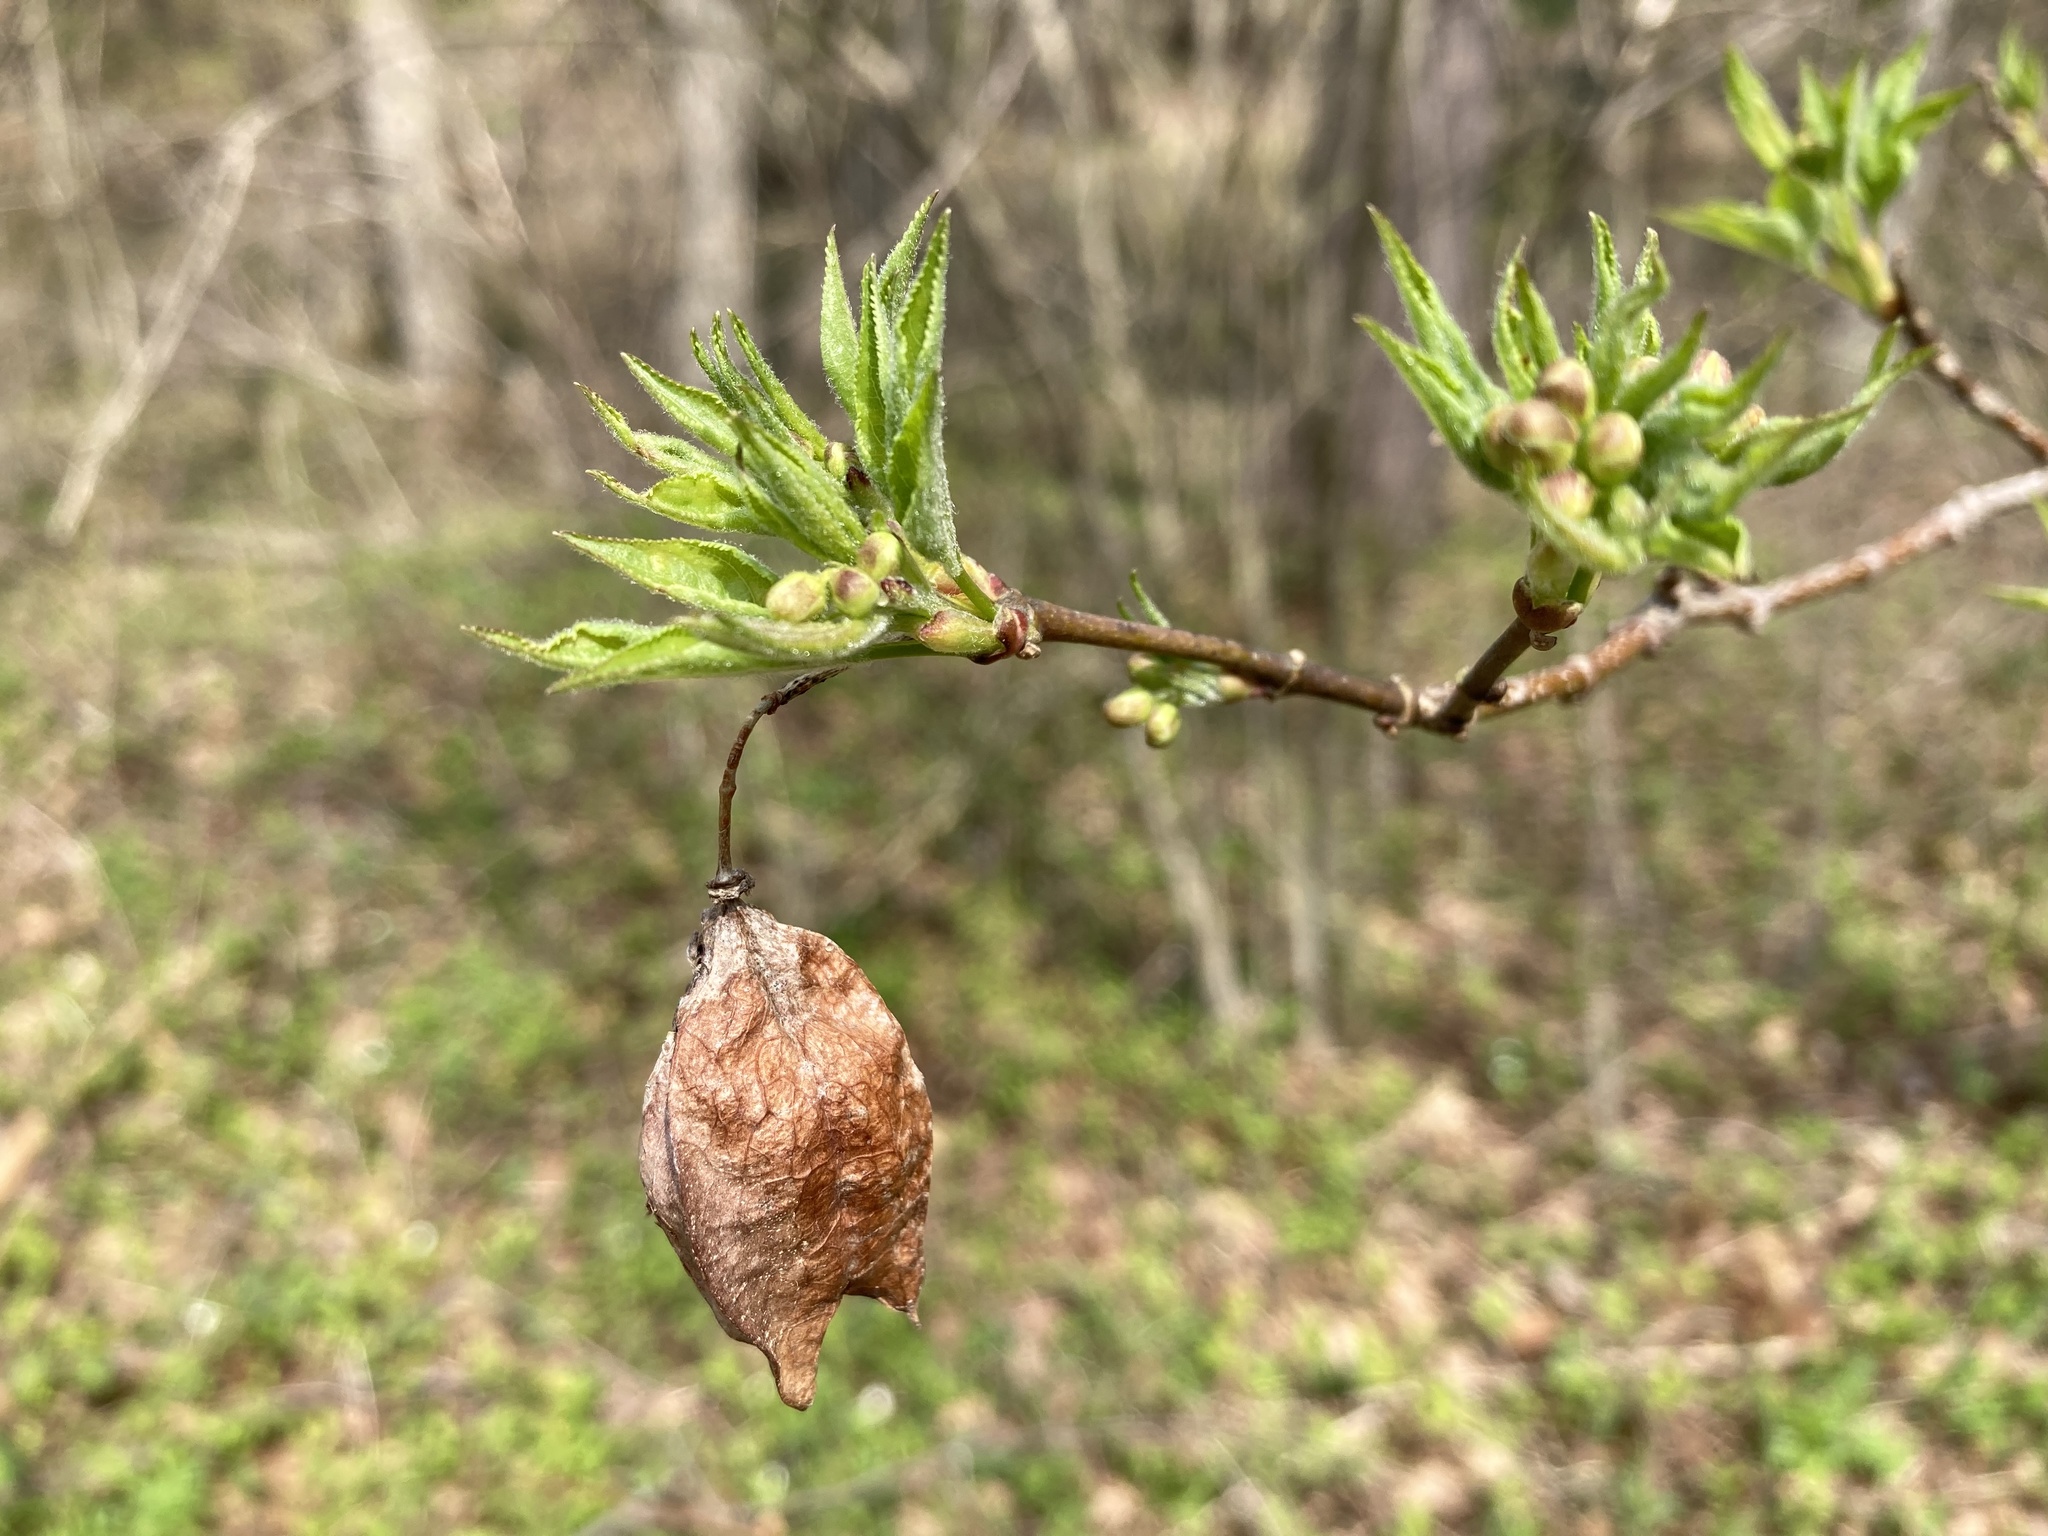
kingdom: Plantae
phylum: Tracheophyta
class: Magnoliopsida
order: Crossosomatales
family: Staphyleaceae
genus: Staphylea
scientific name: Staphylea trifolia
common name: American bladdernut
